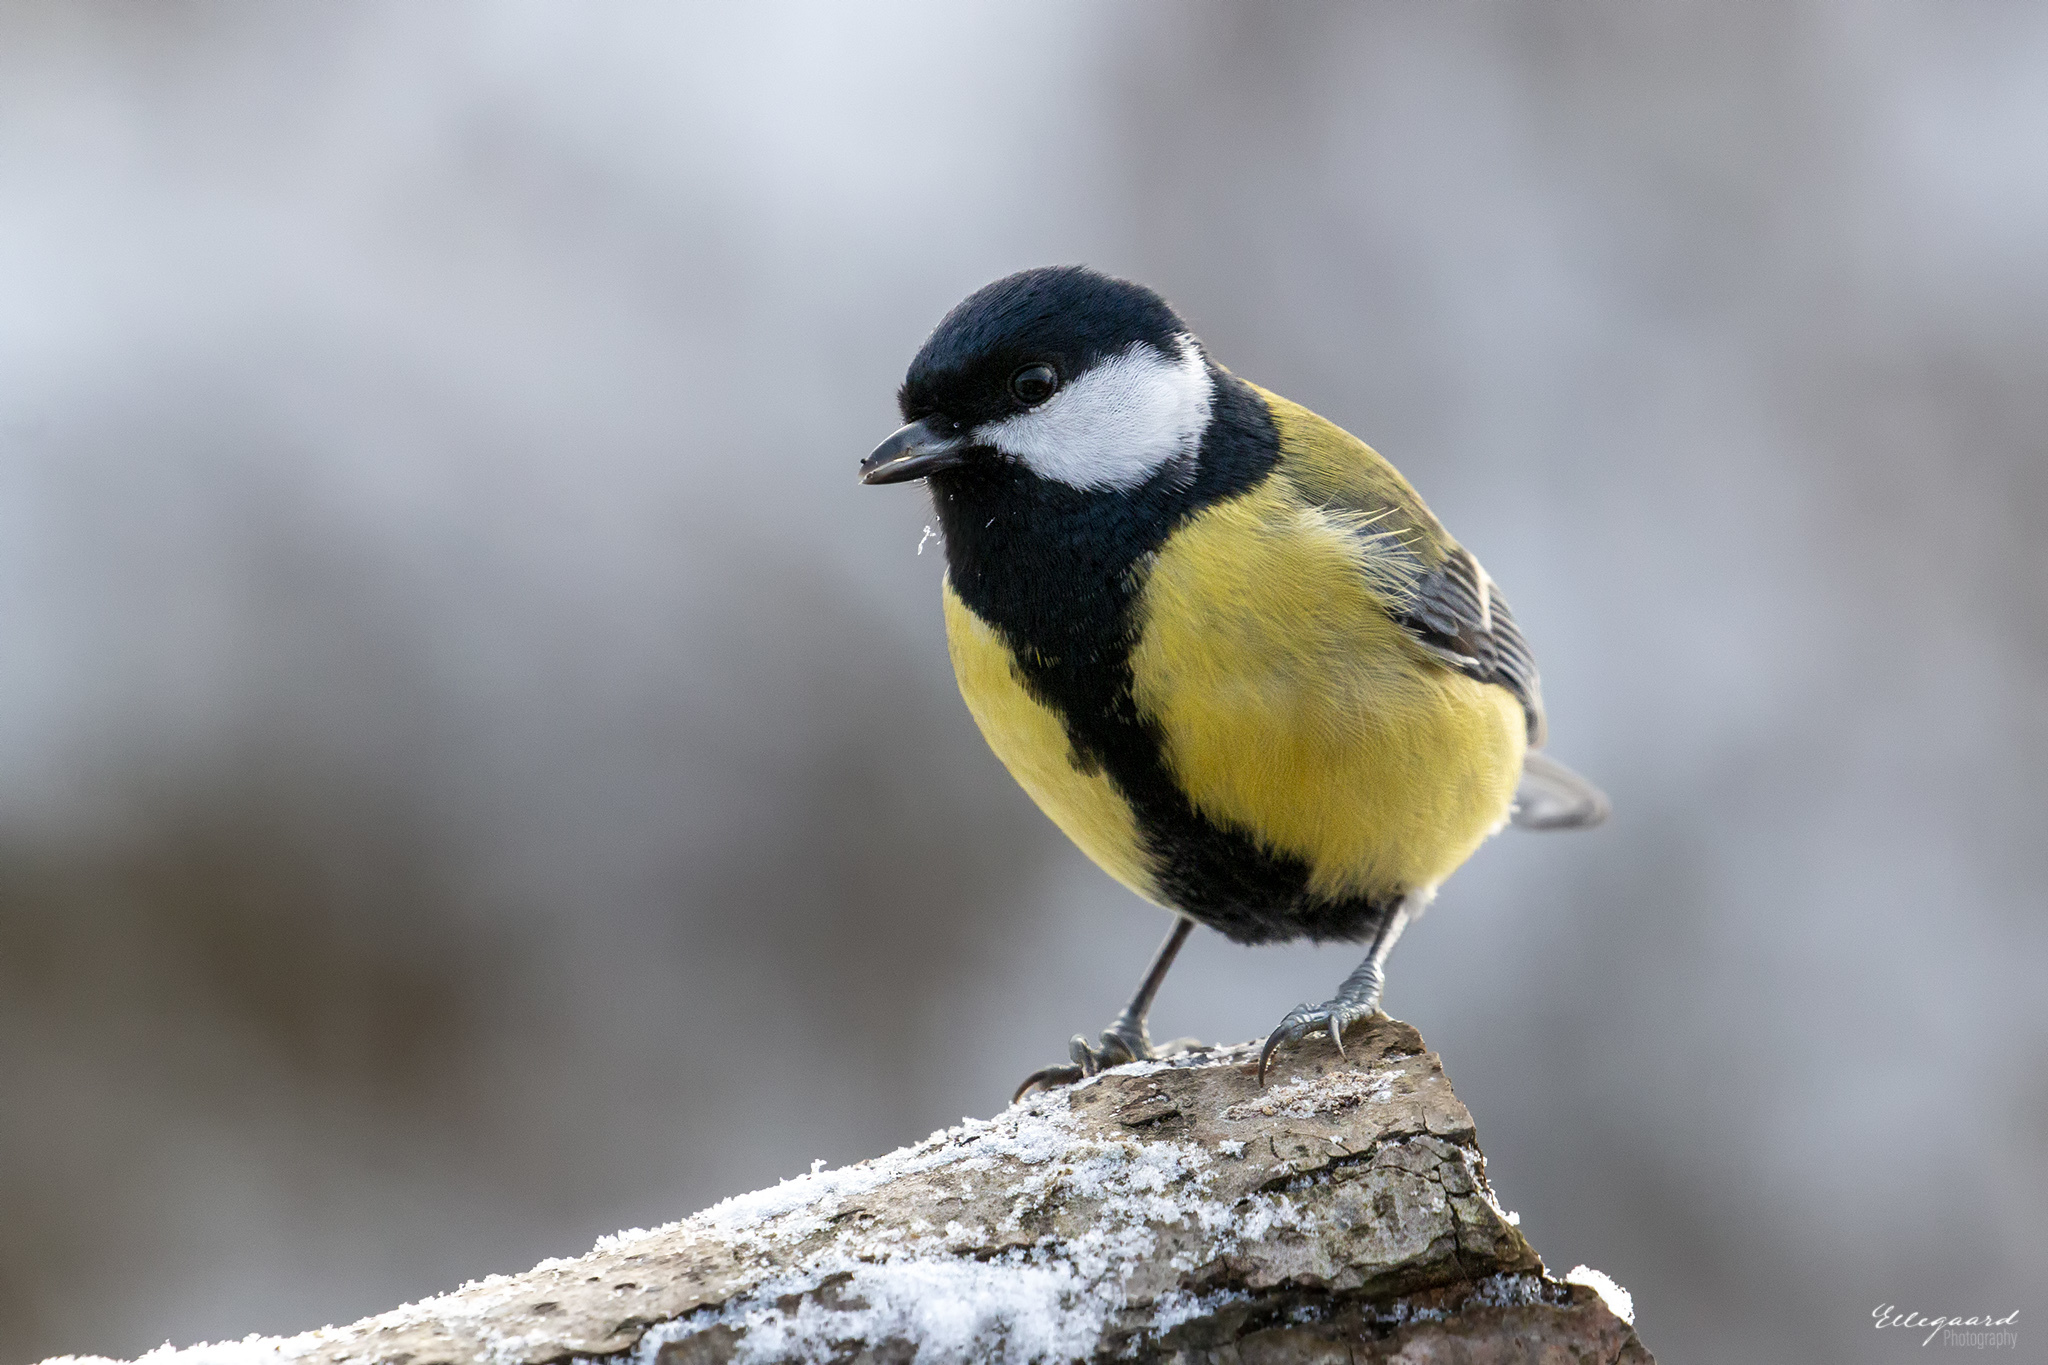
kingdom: Animalia
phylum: Chordata
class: Aves
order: Passeriformes
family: Paridae
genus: Parus
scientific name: Parus major
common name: Great tit
